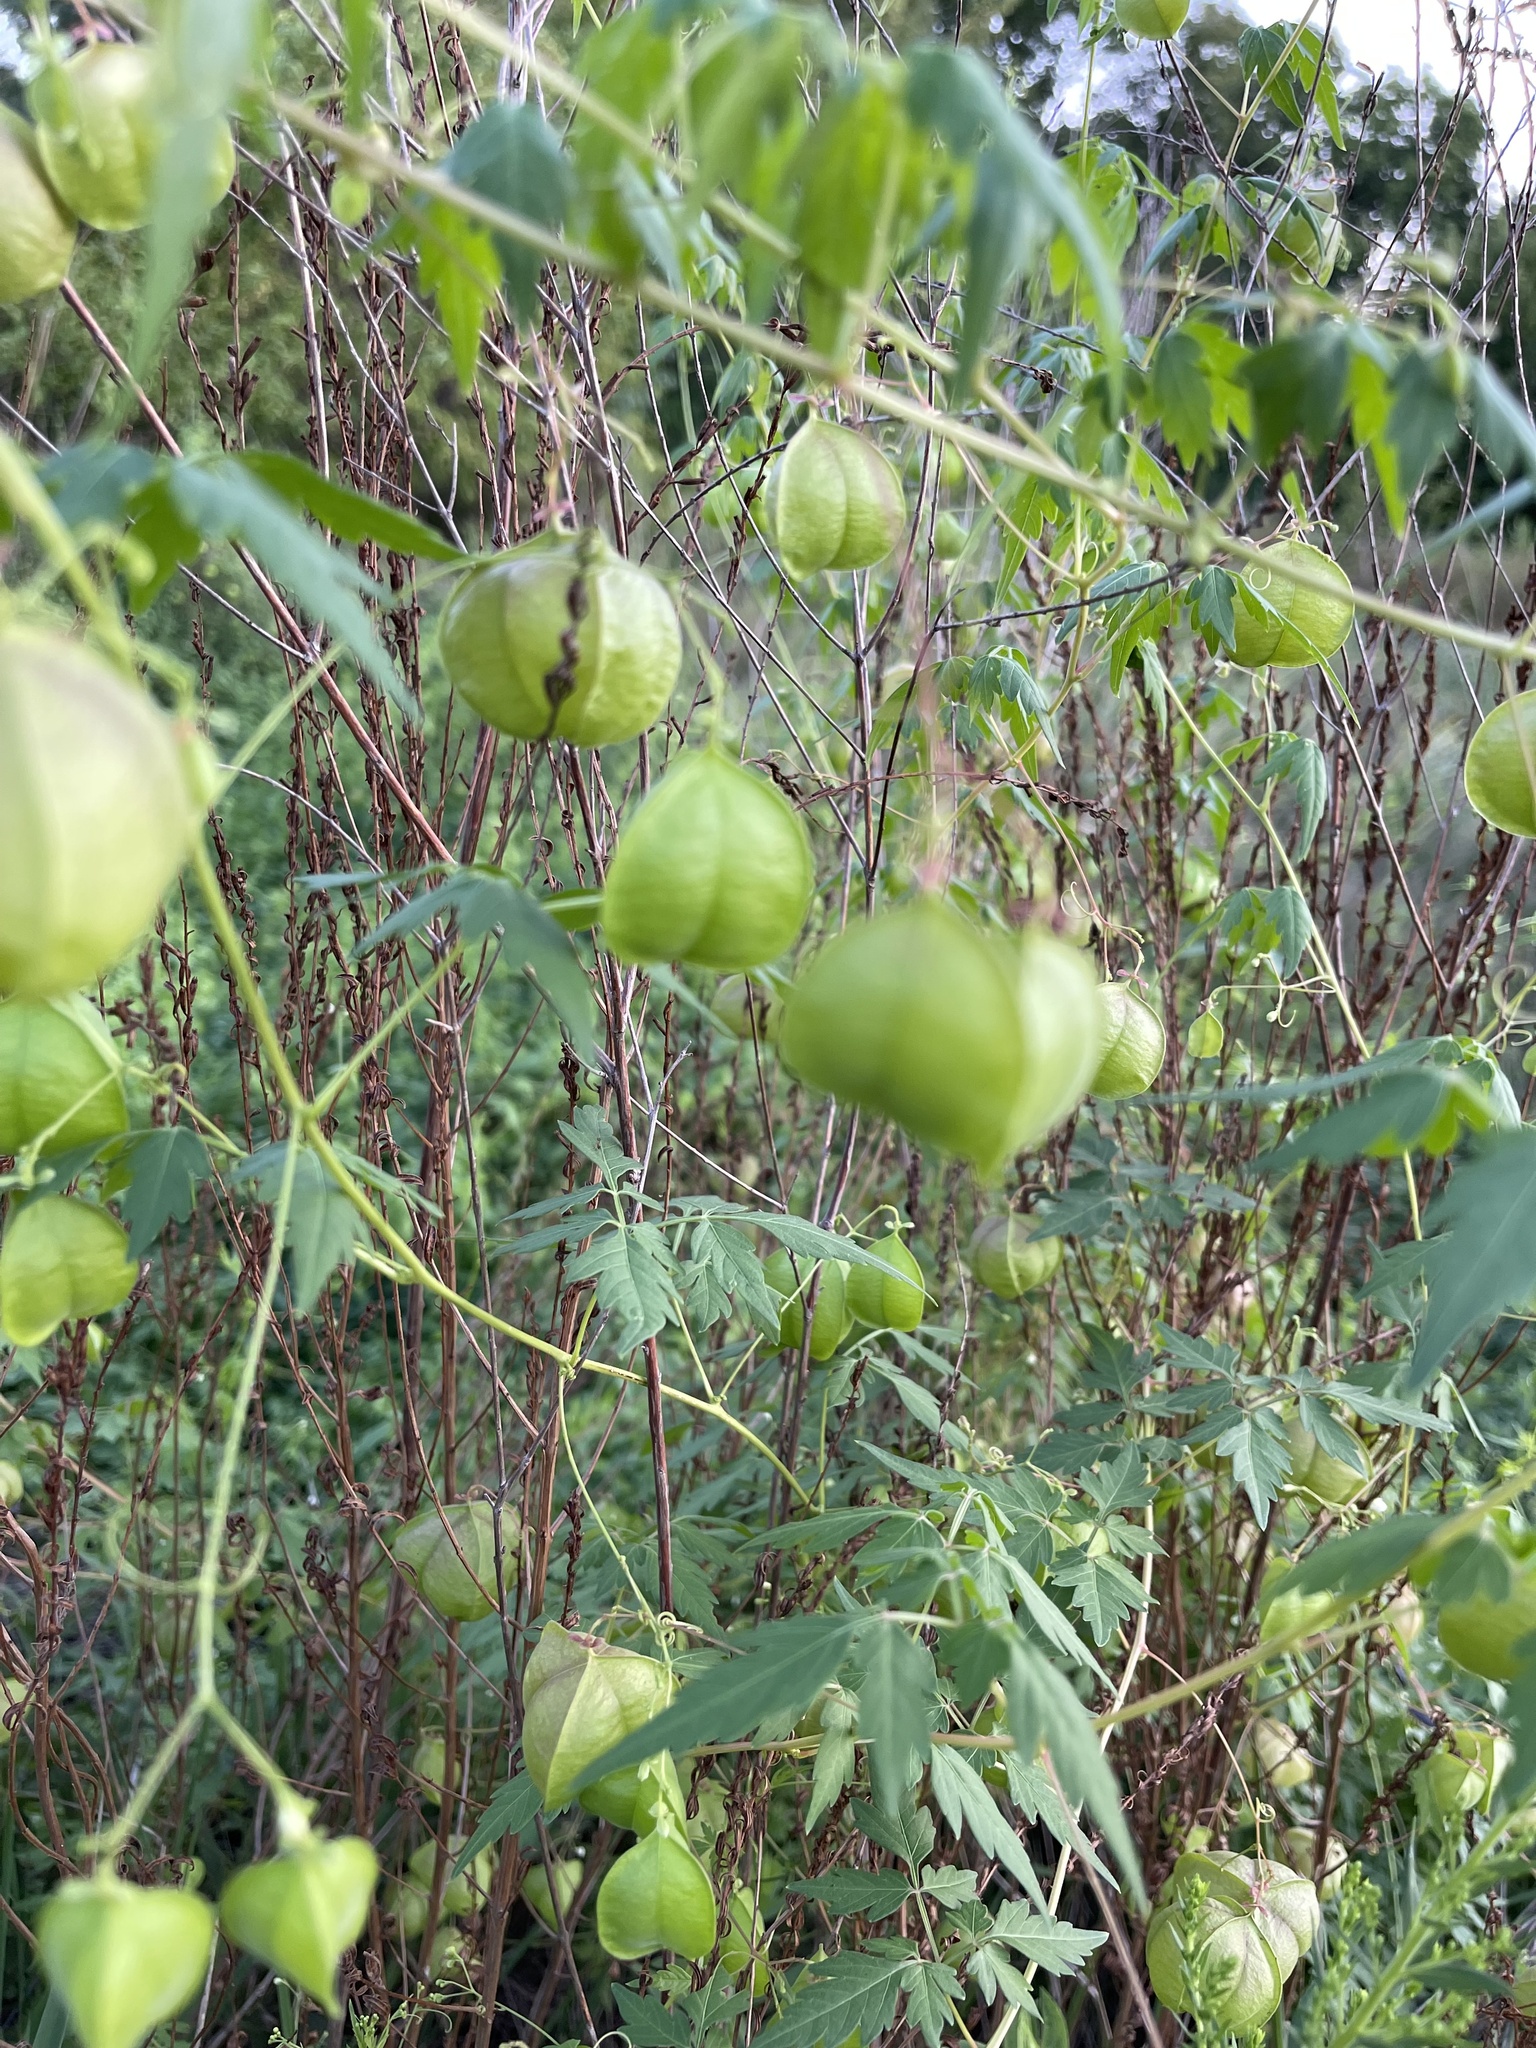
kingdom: Plantae
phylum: Tracheophyta
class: Magnoliopsida
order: Sapindales
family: Sapindaceae
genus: Cardiospermum
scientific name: Cardiospermum halicacabum
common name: Balloon vine
